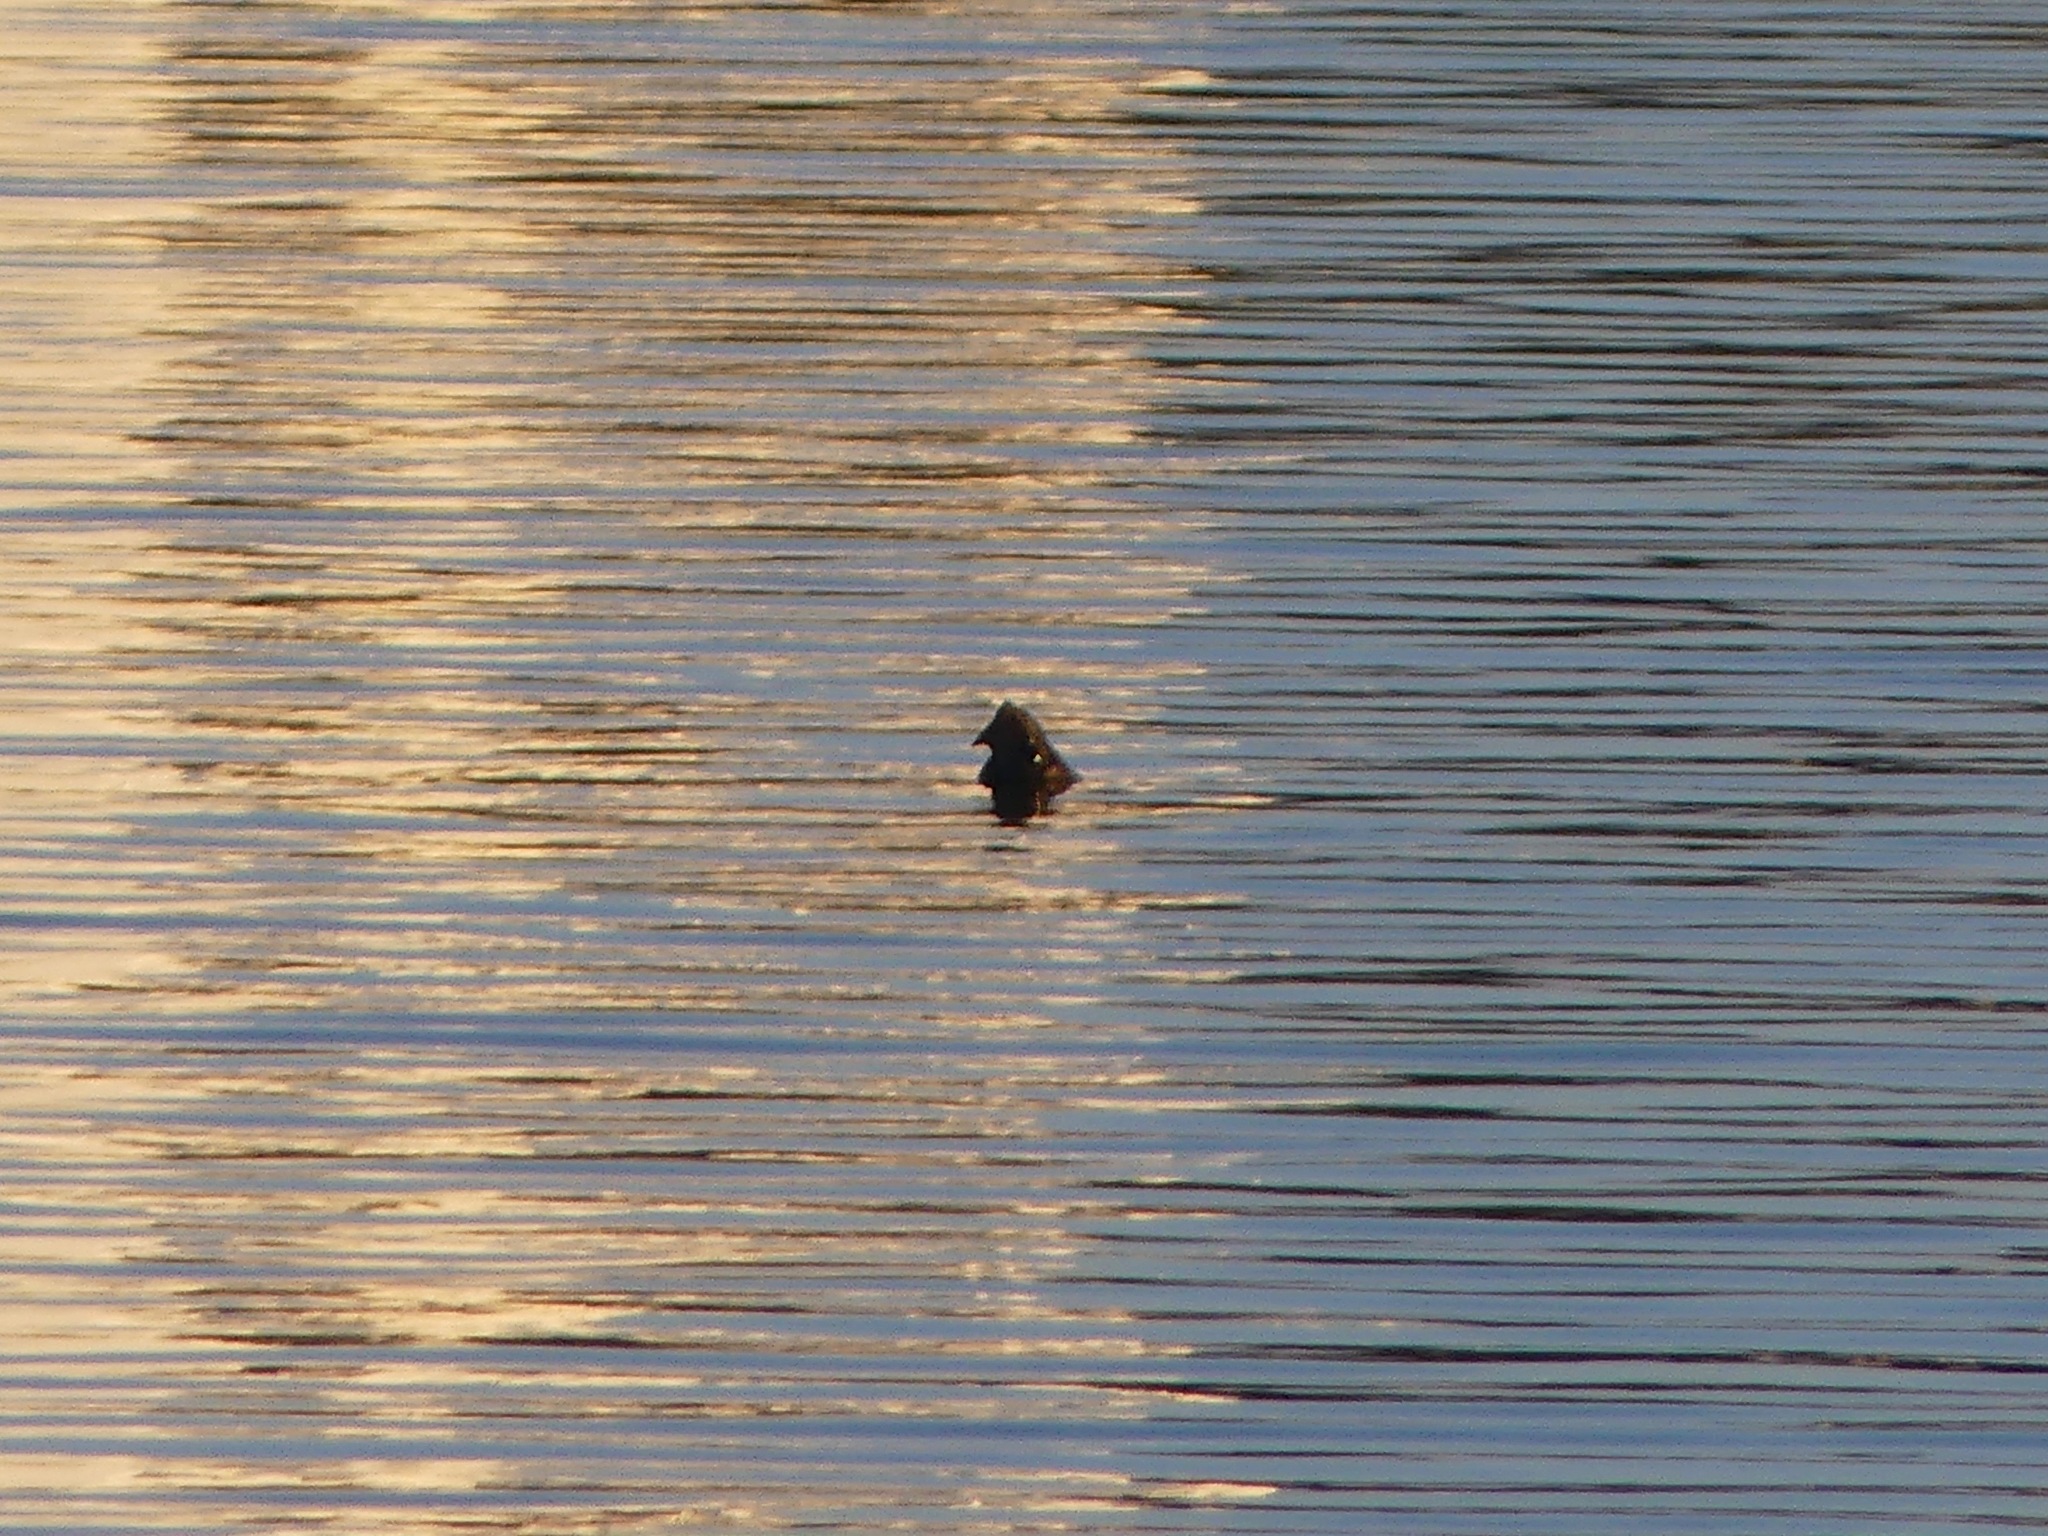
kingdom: Animalia
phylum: Chordata
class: Testudines
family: Chelydridae
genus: Macrochelys
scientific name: Macrochelys temminckii
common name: Alligator snapping turtle
